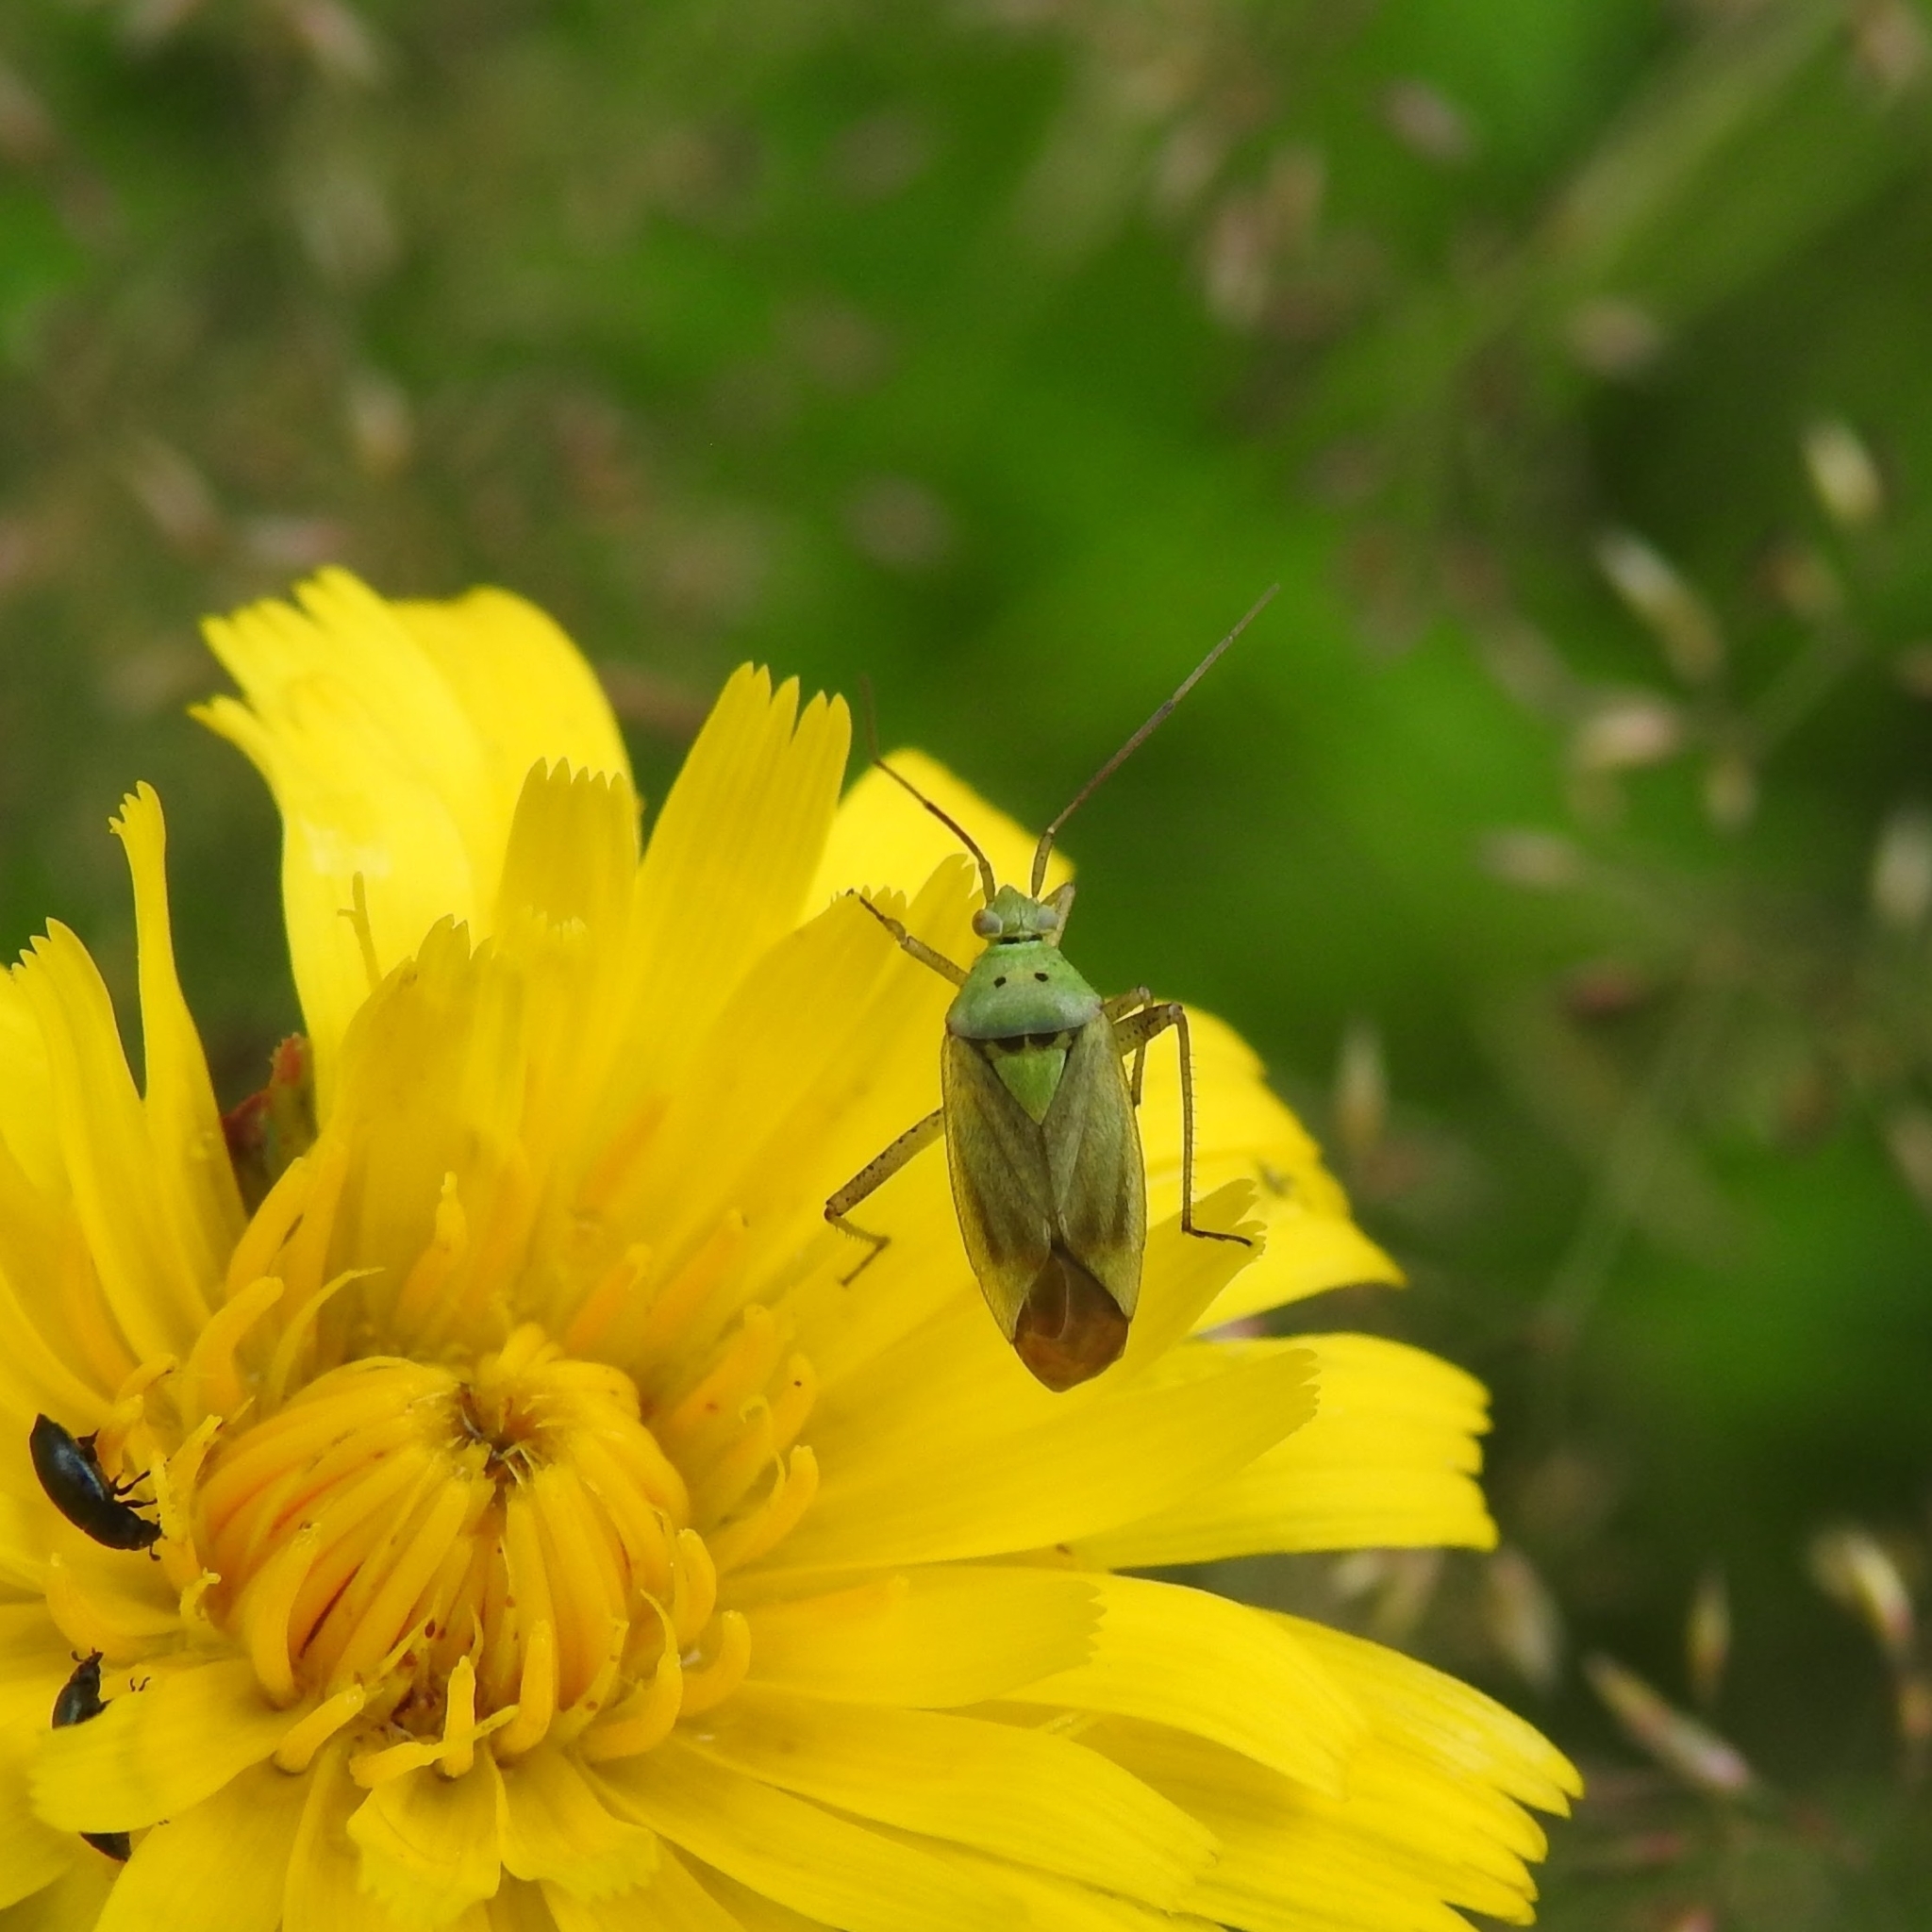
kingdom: Animalia
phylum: Arthropoda
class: Insecta
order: Hemiptera
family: Miridae
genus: Closterotomus
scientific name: Closterotomus norvegicus
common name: Plant bug
